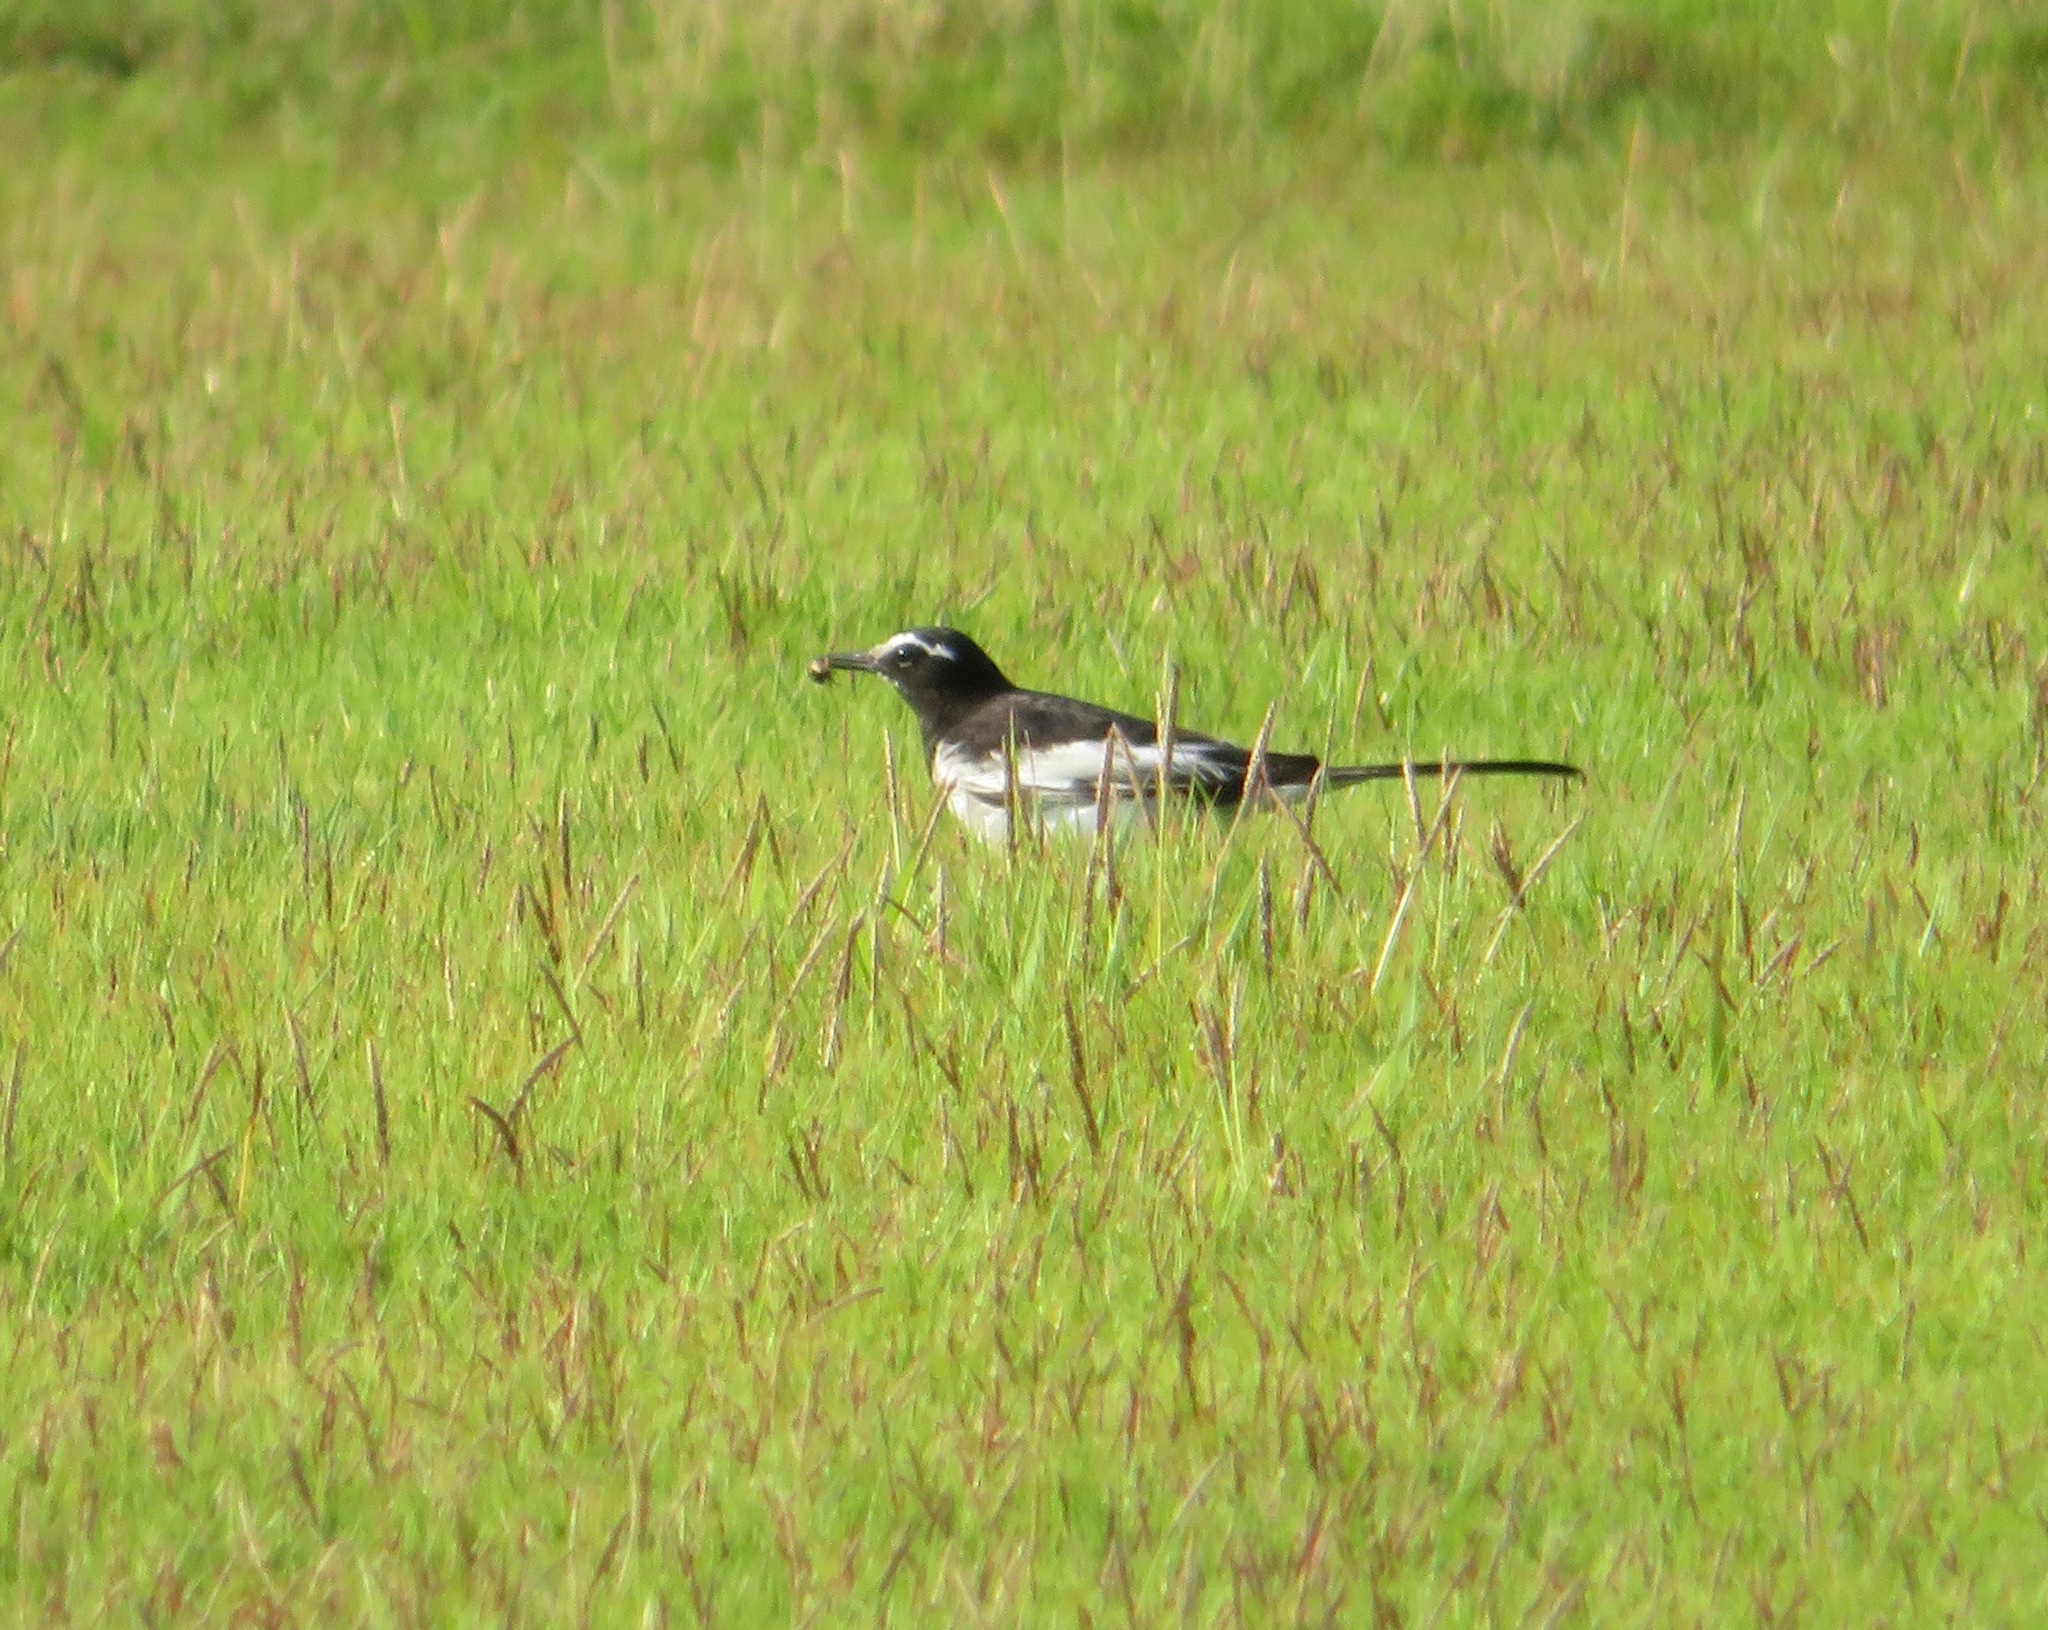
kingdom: Animalia
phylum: Chordata
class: Aves
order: Passeriformes
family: Motacillidae
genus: Motacilla
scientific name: Motacilla grandis
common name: Japanese wagtail
